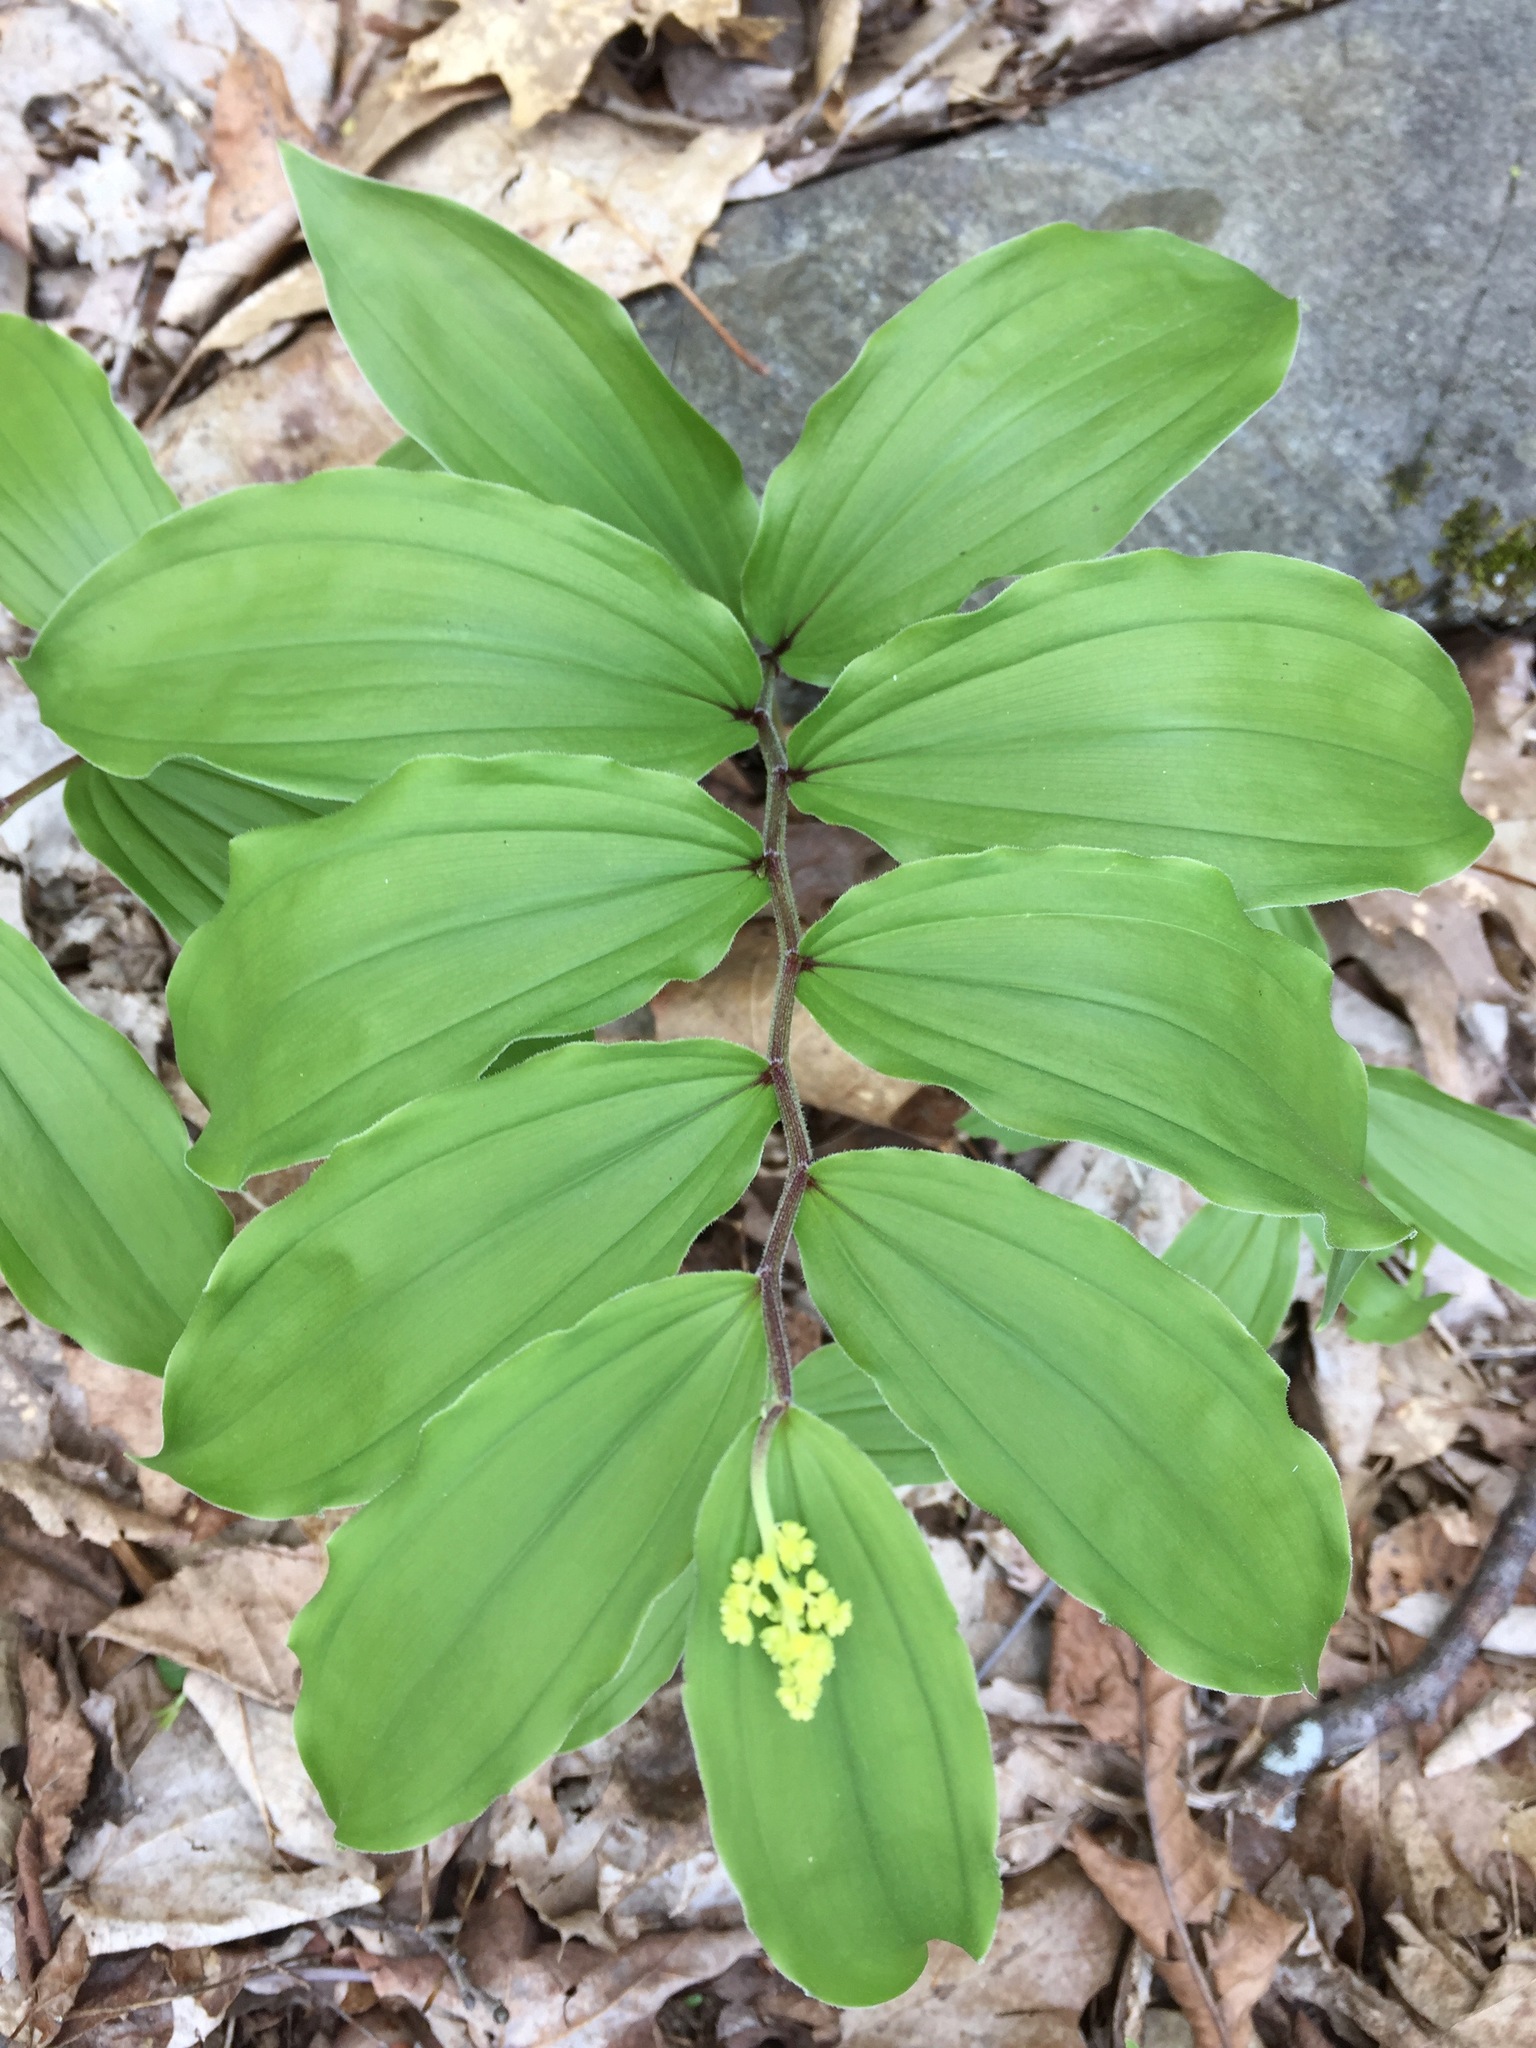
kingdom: Plantae
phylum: Tracheophyta
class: Liliopsida
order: Asparagales
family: Asparagaceae
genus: Maianthemum
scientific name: Maianthemum racemosum
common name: False spikenard
